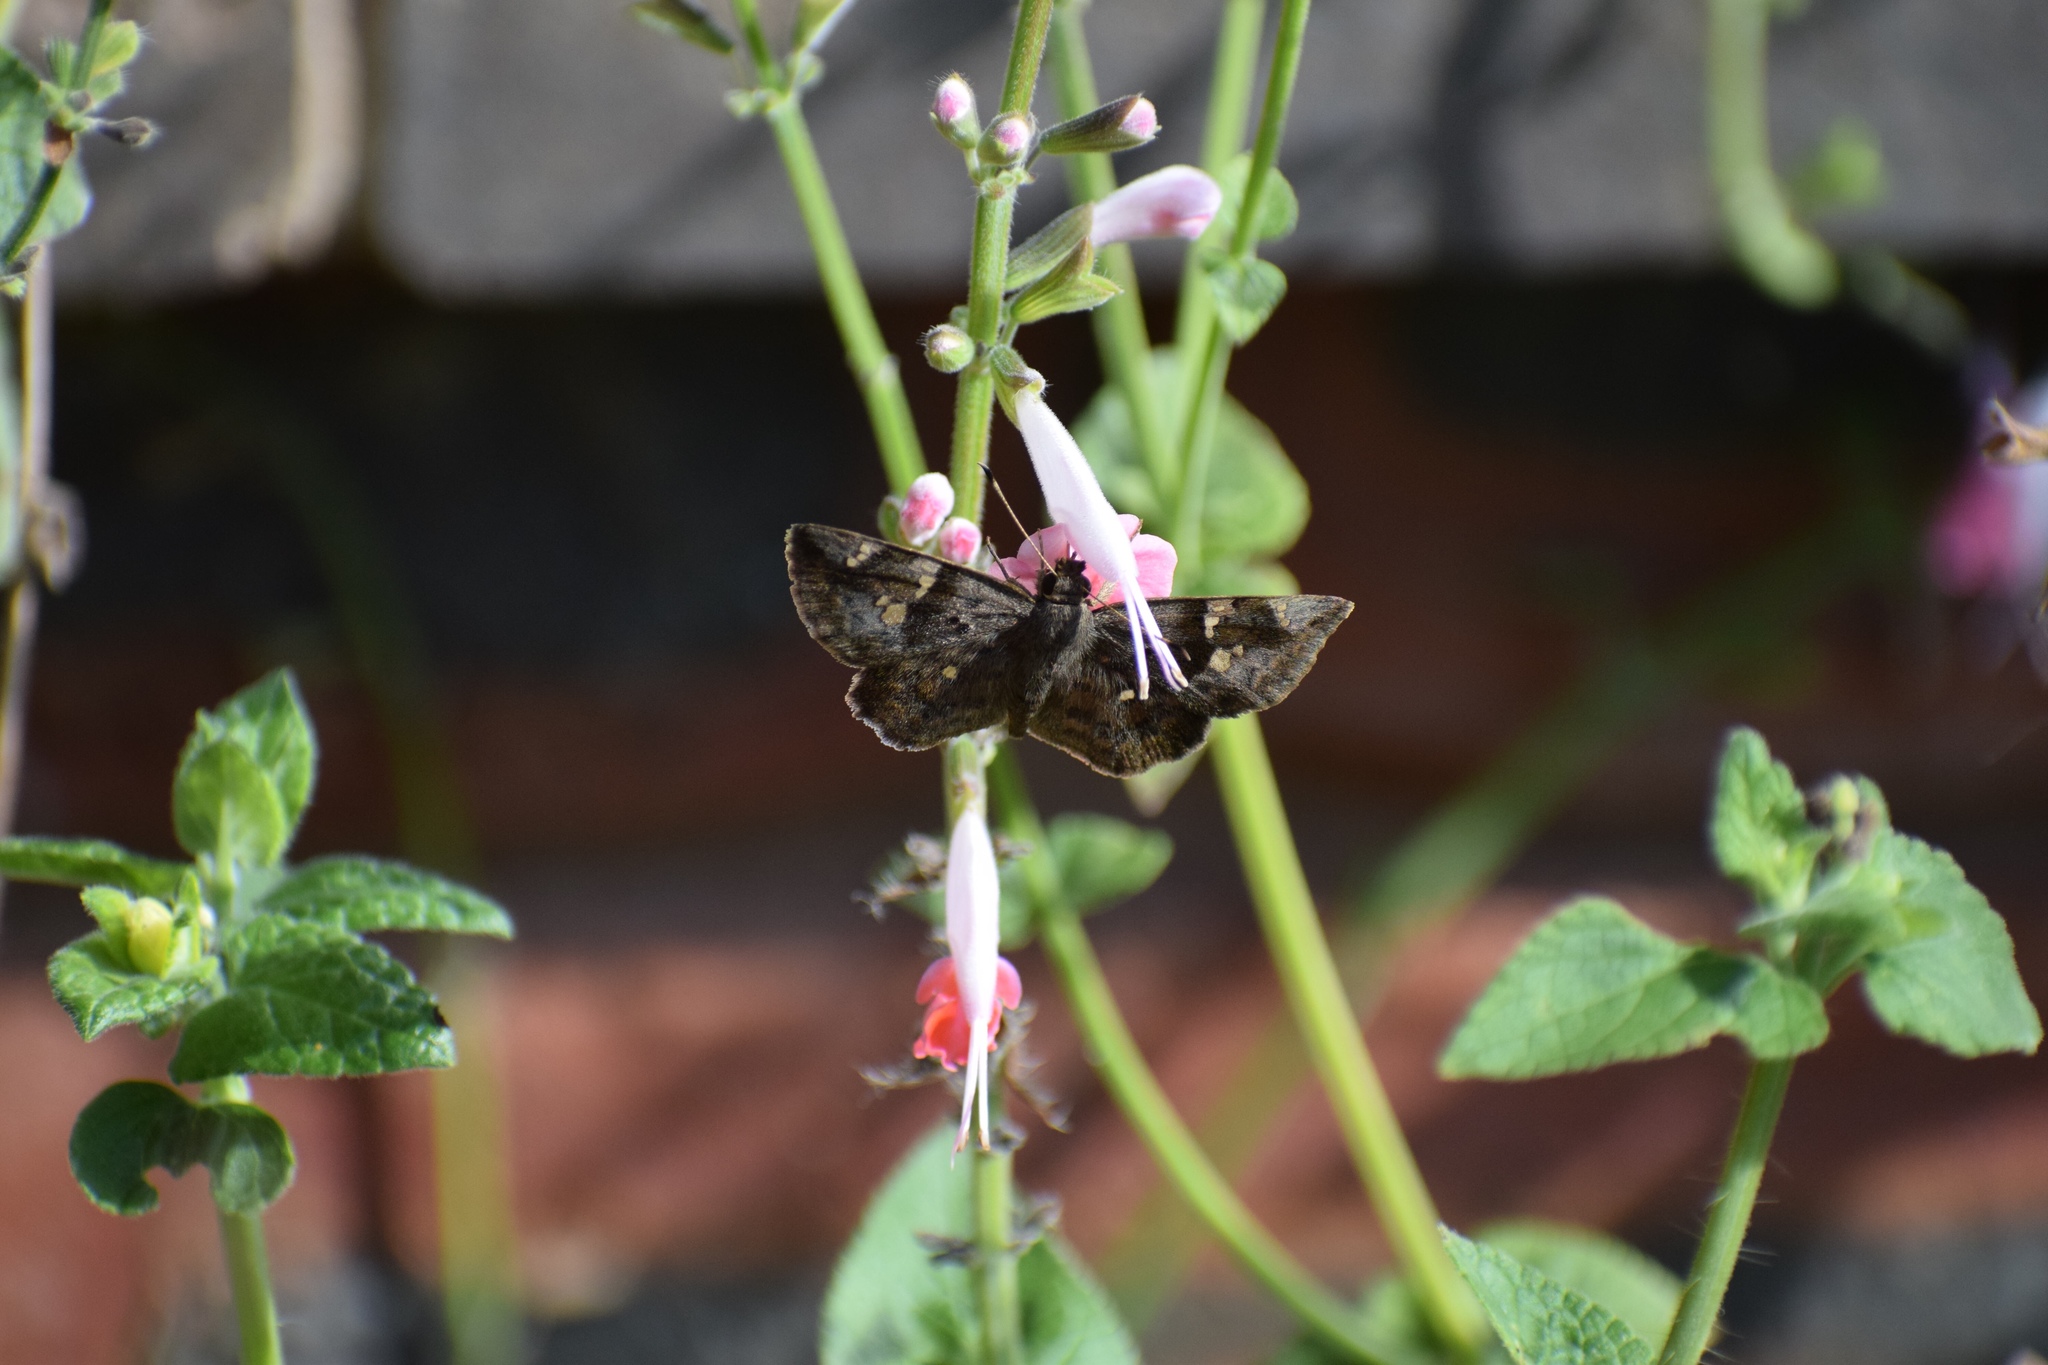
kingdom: Animalia
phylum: Arthropoda
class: Insecta
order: Lepidoptera
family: Hesperiidae
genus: Sarangesa
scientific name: Sarangesa motozi
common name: Forest elfin
